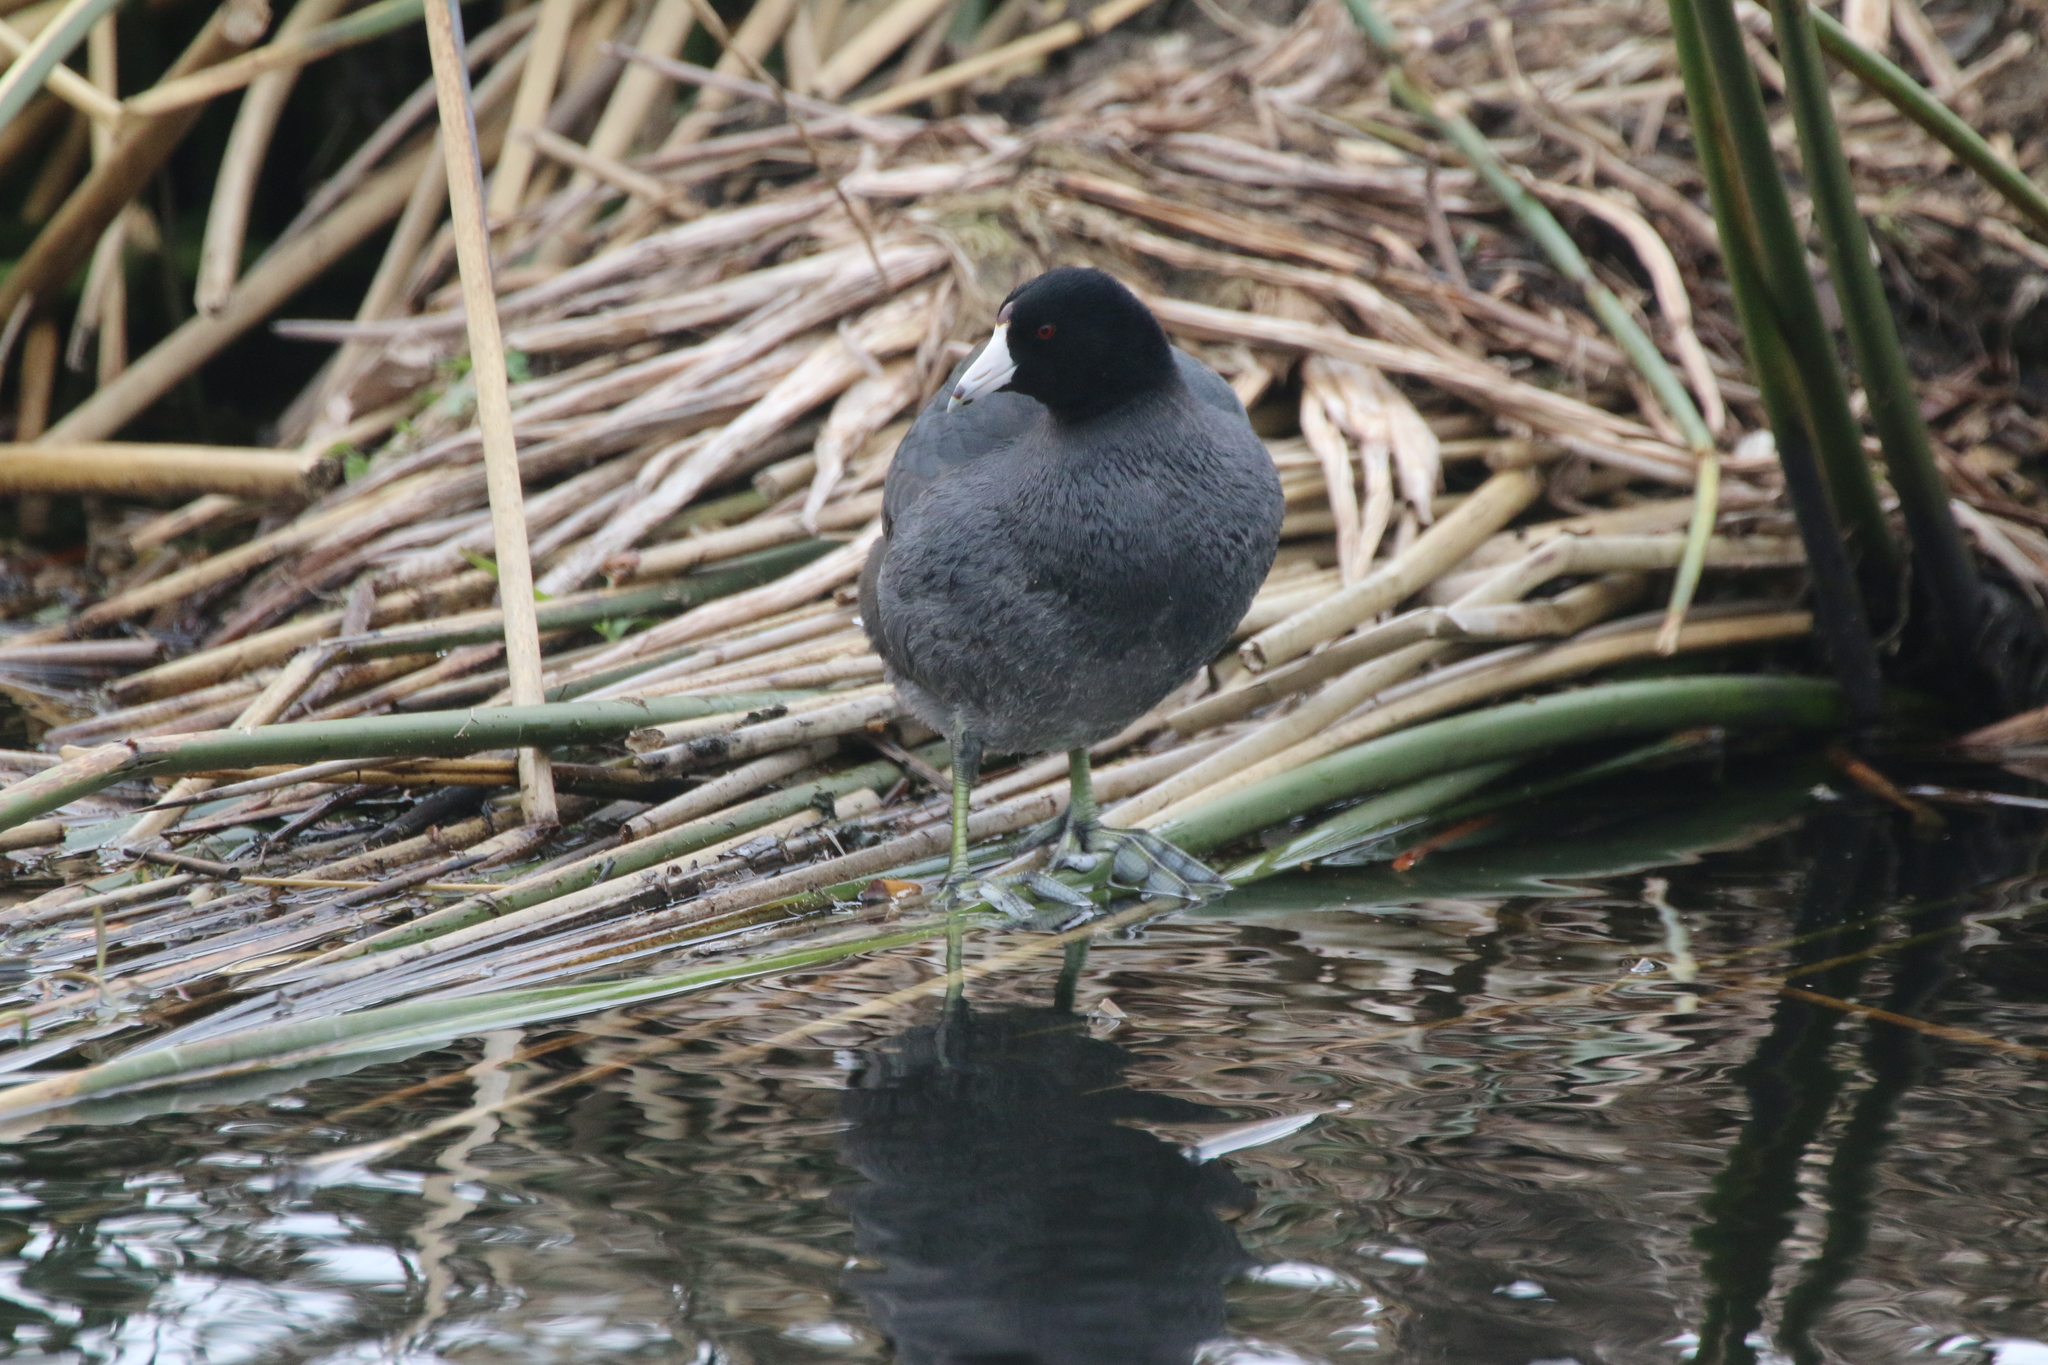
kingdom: Animalia
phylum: Chordata
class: Aves
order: Gruiformes
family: Rallidae
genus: Fulica
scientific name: Fulica americana
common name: American coot
